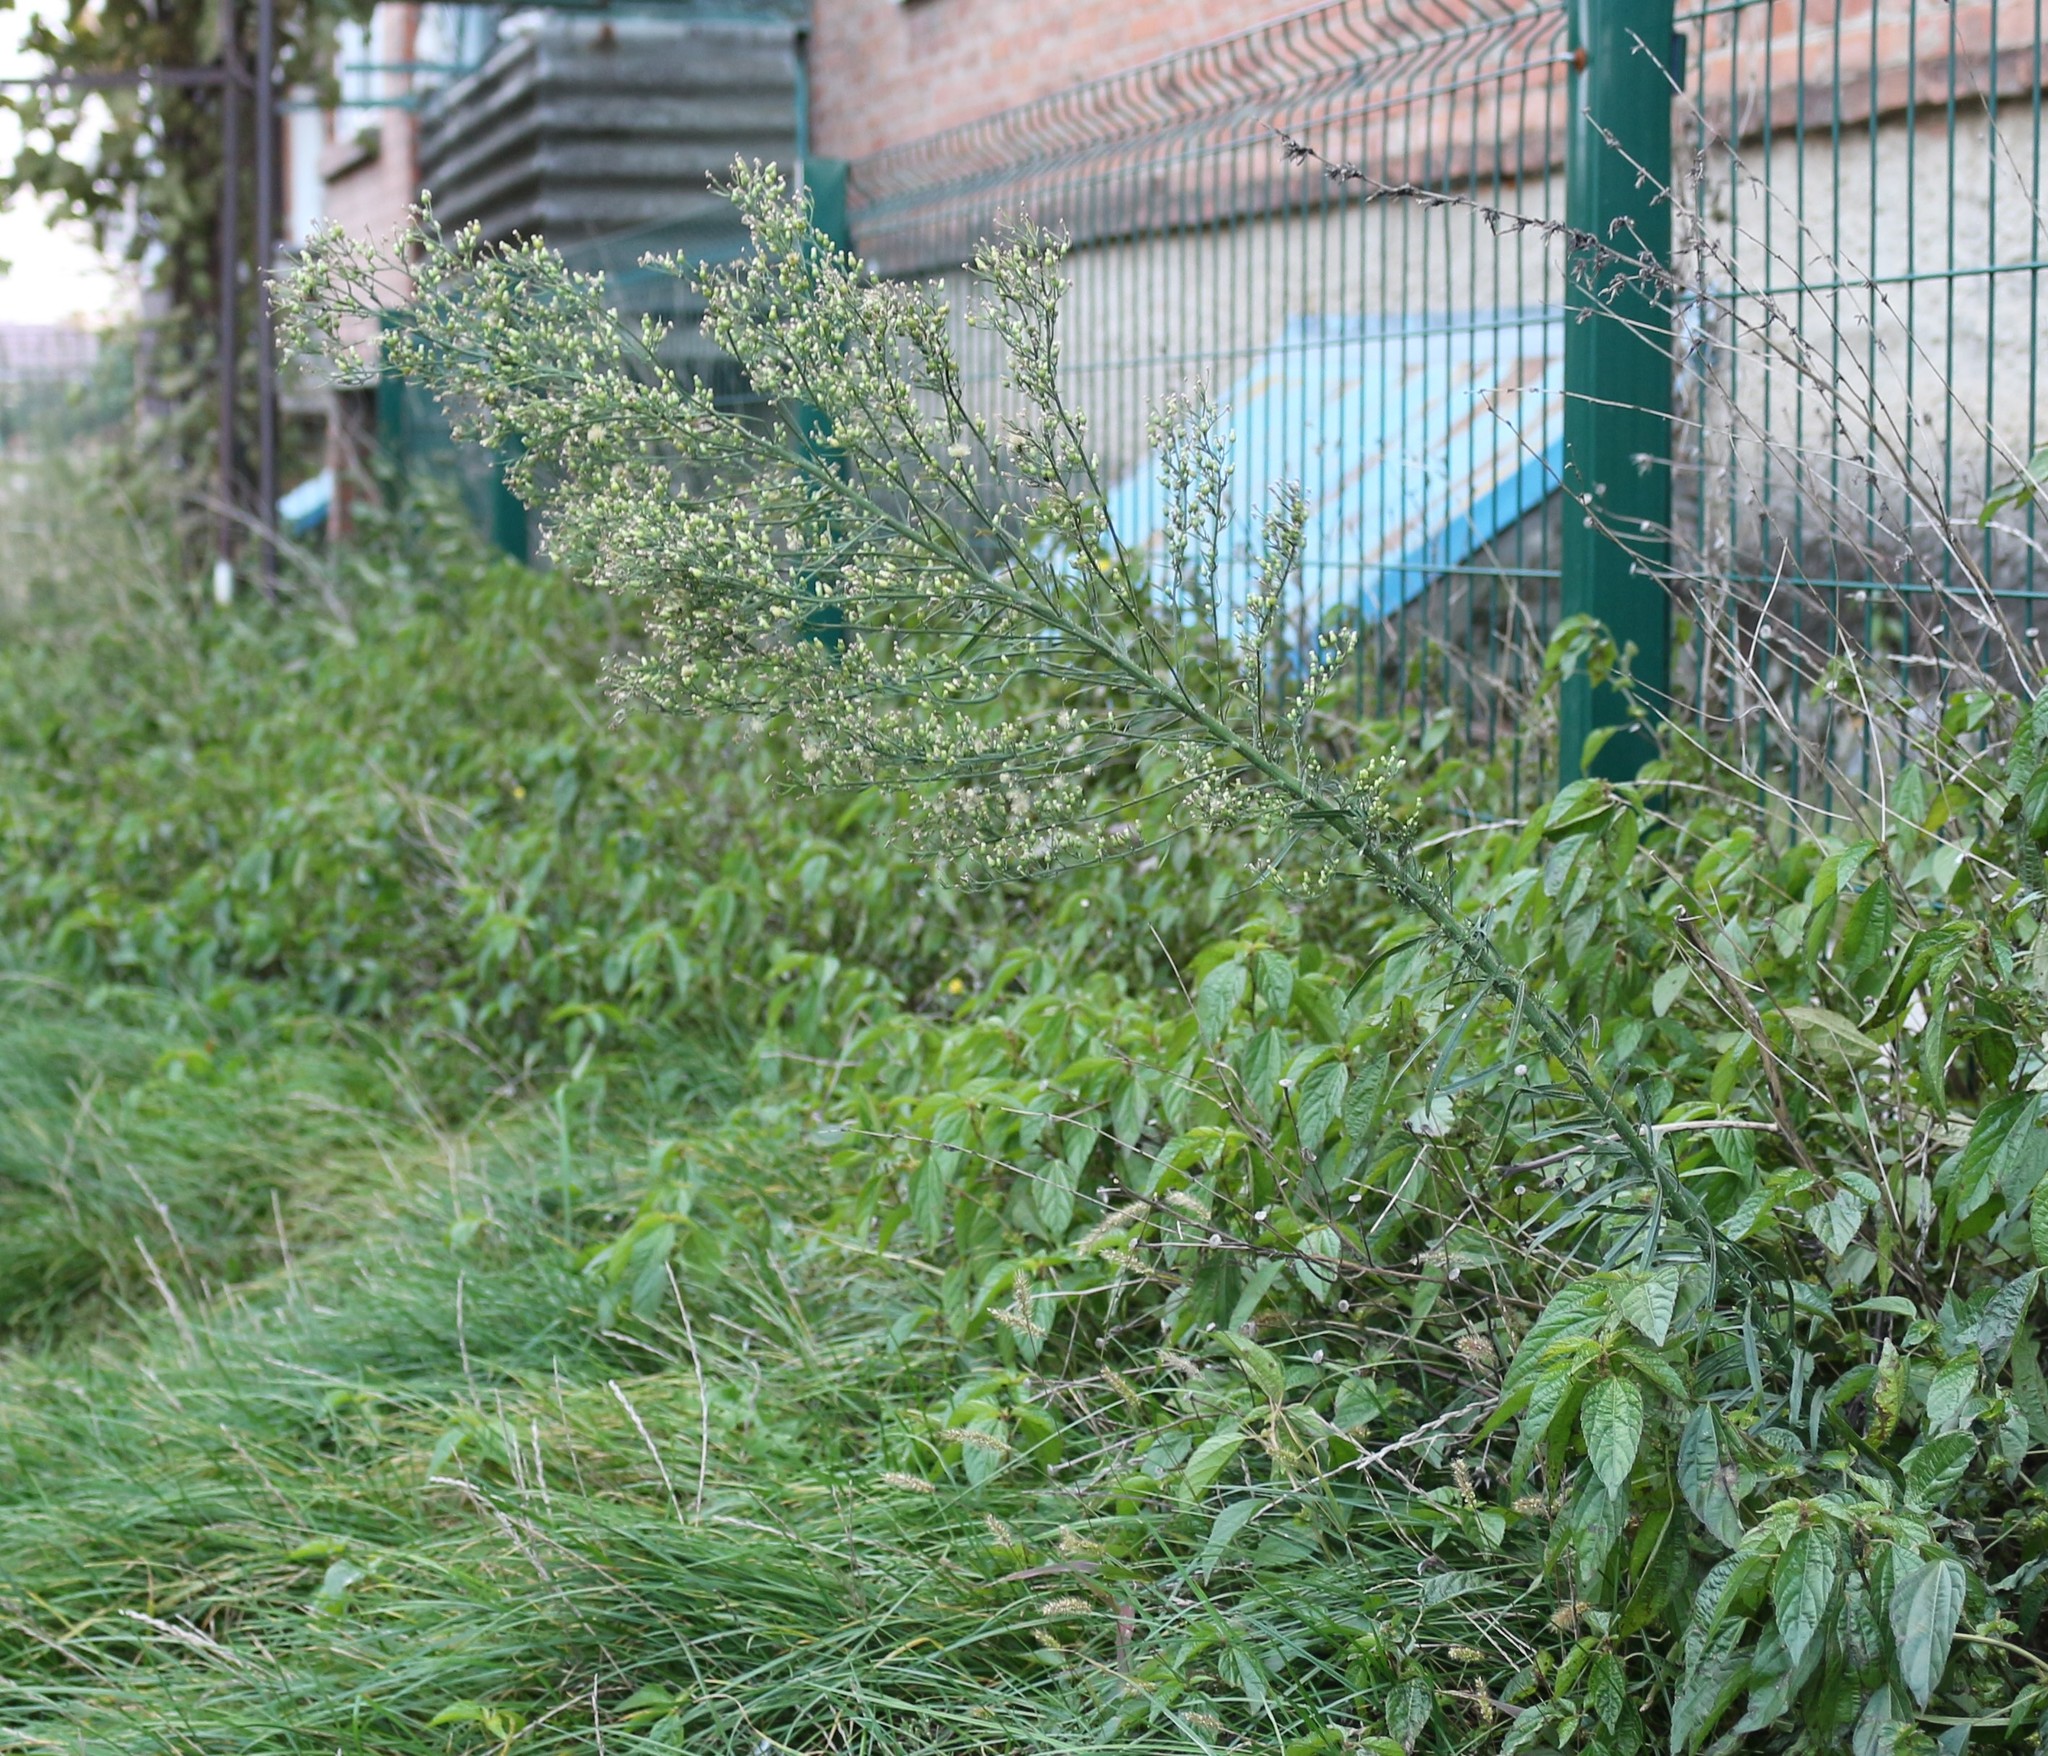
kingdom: Plantae
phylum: Tracheophyta
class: Magnoliopsida
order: Asterales
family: Asteraceae
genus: Erigeron
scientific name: Erigeron canadensis
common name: Canadian fleabane
